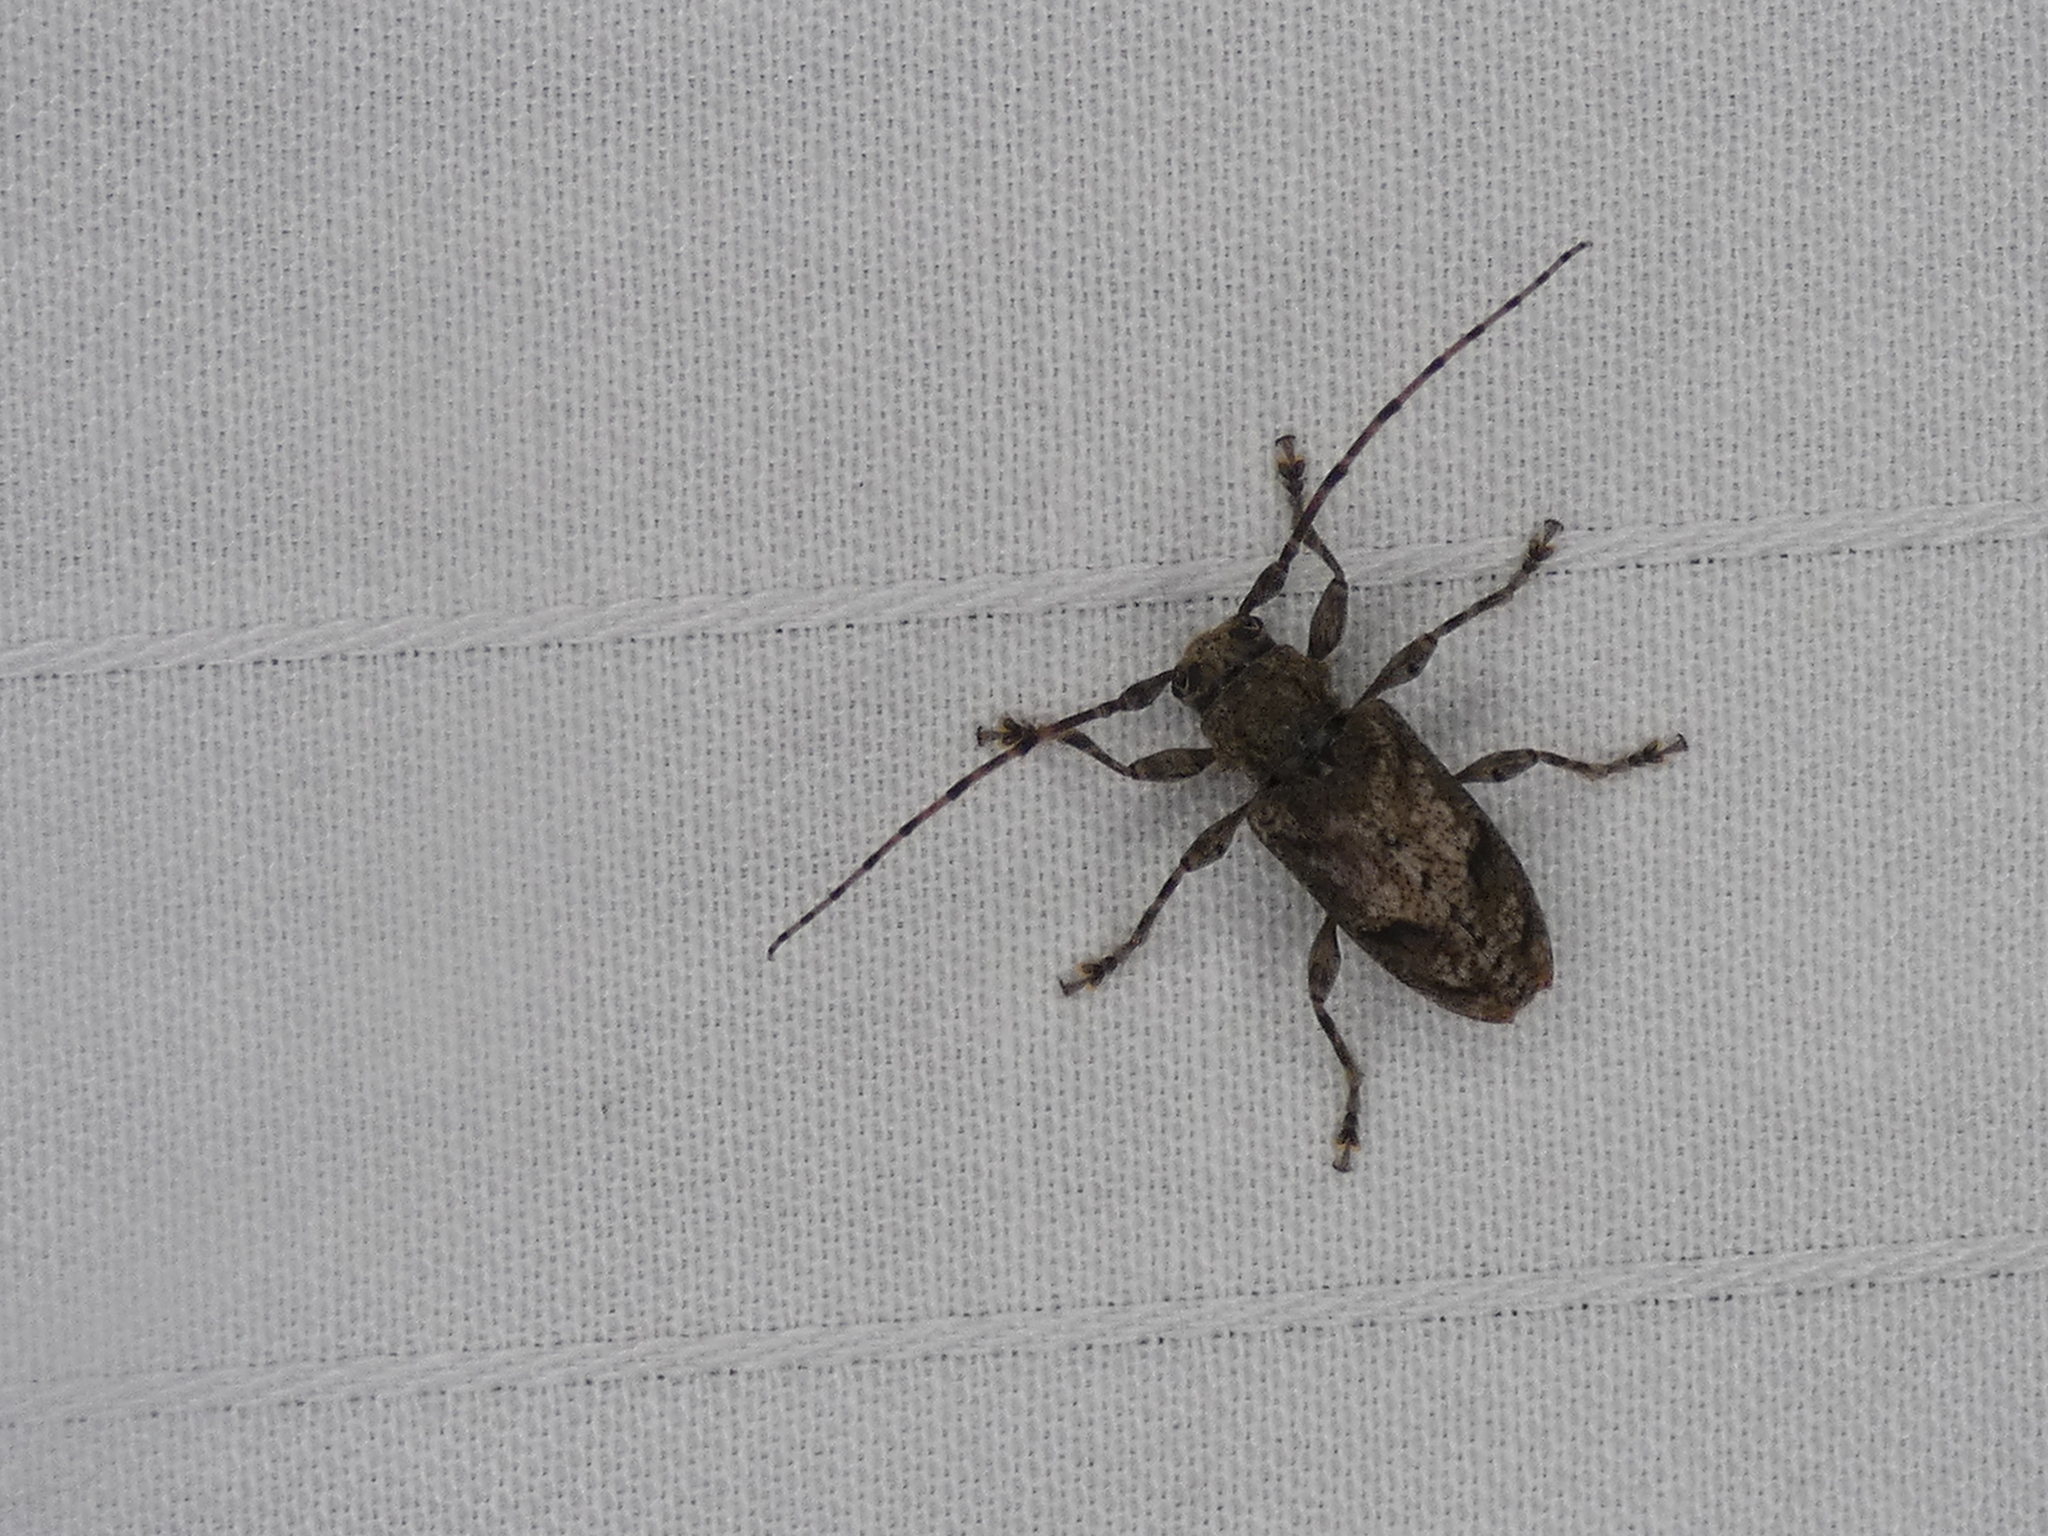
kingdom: Animalia
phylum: Arthropoda
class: Insecta
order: Coleoptera
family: Cerambycidae
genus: Aegomorphus
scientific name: Aegomorphus modestus
